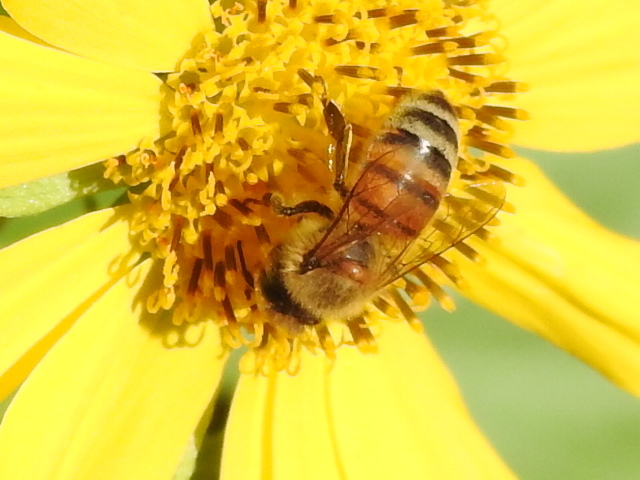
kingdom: Animalia
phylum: Arthropoda
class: Insecta
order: Hymenoptera
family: Apidae
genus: Apis
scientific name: Apis mellifera
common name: Honey bee
